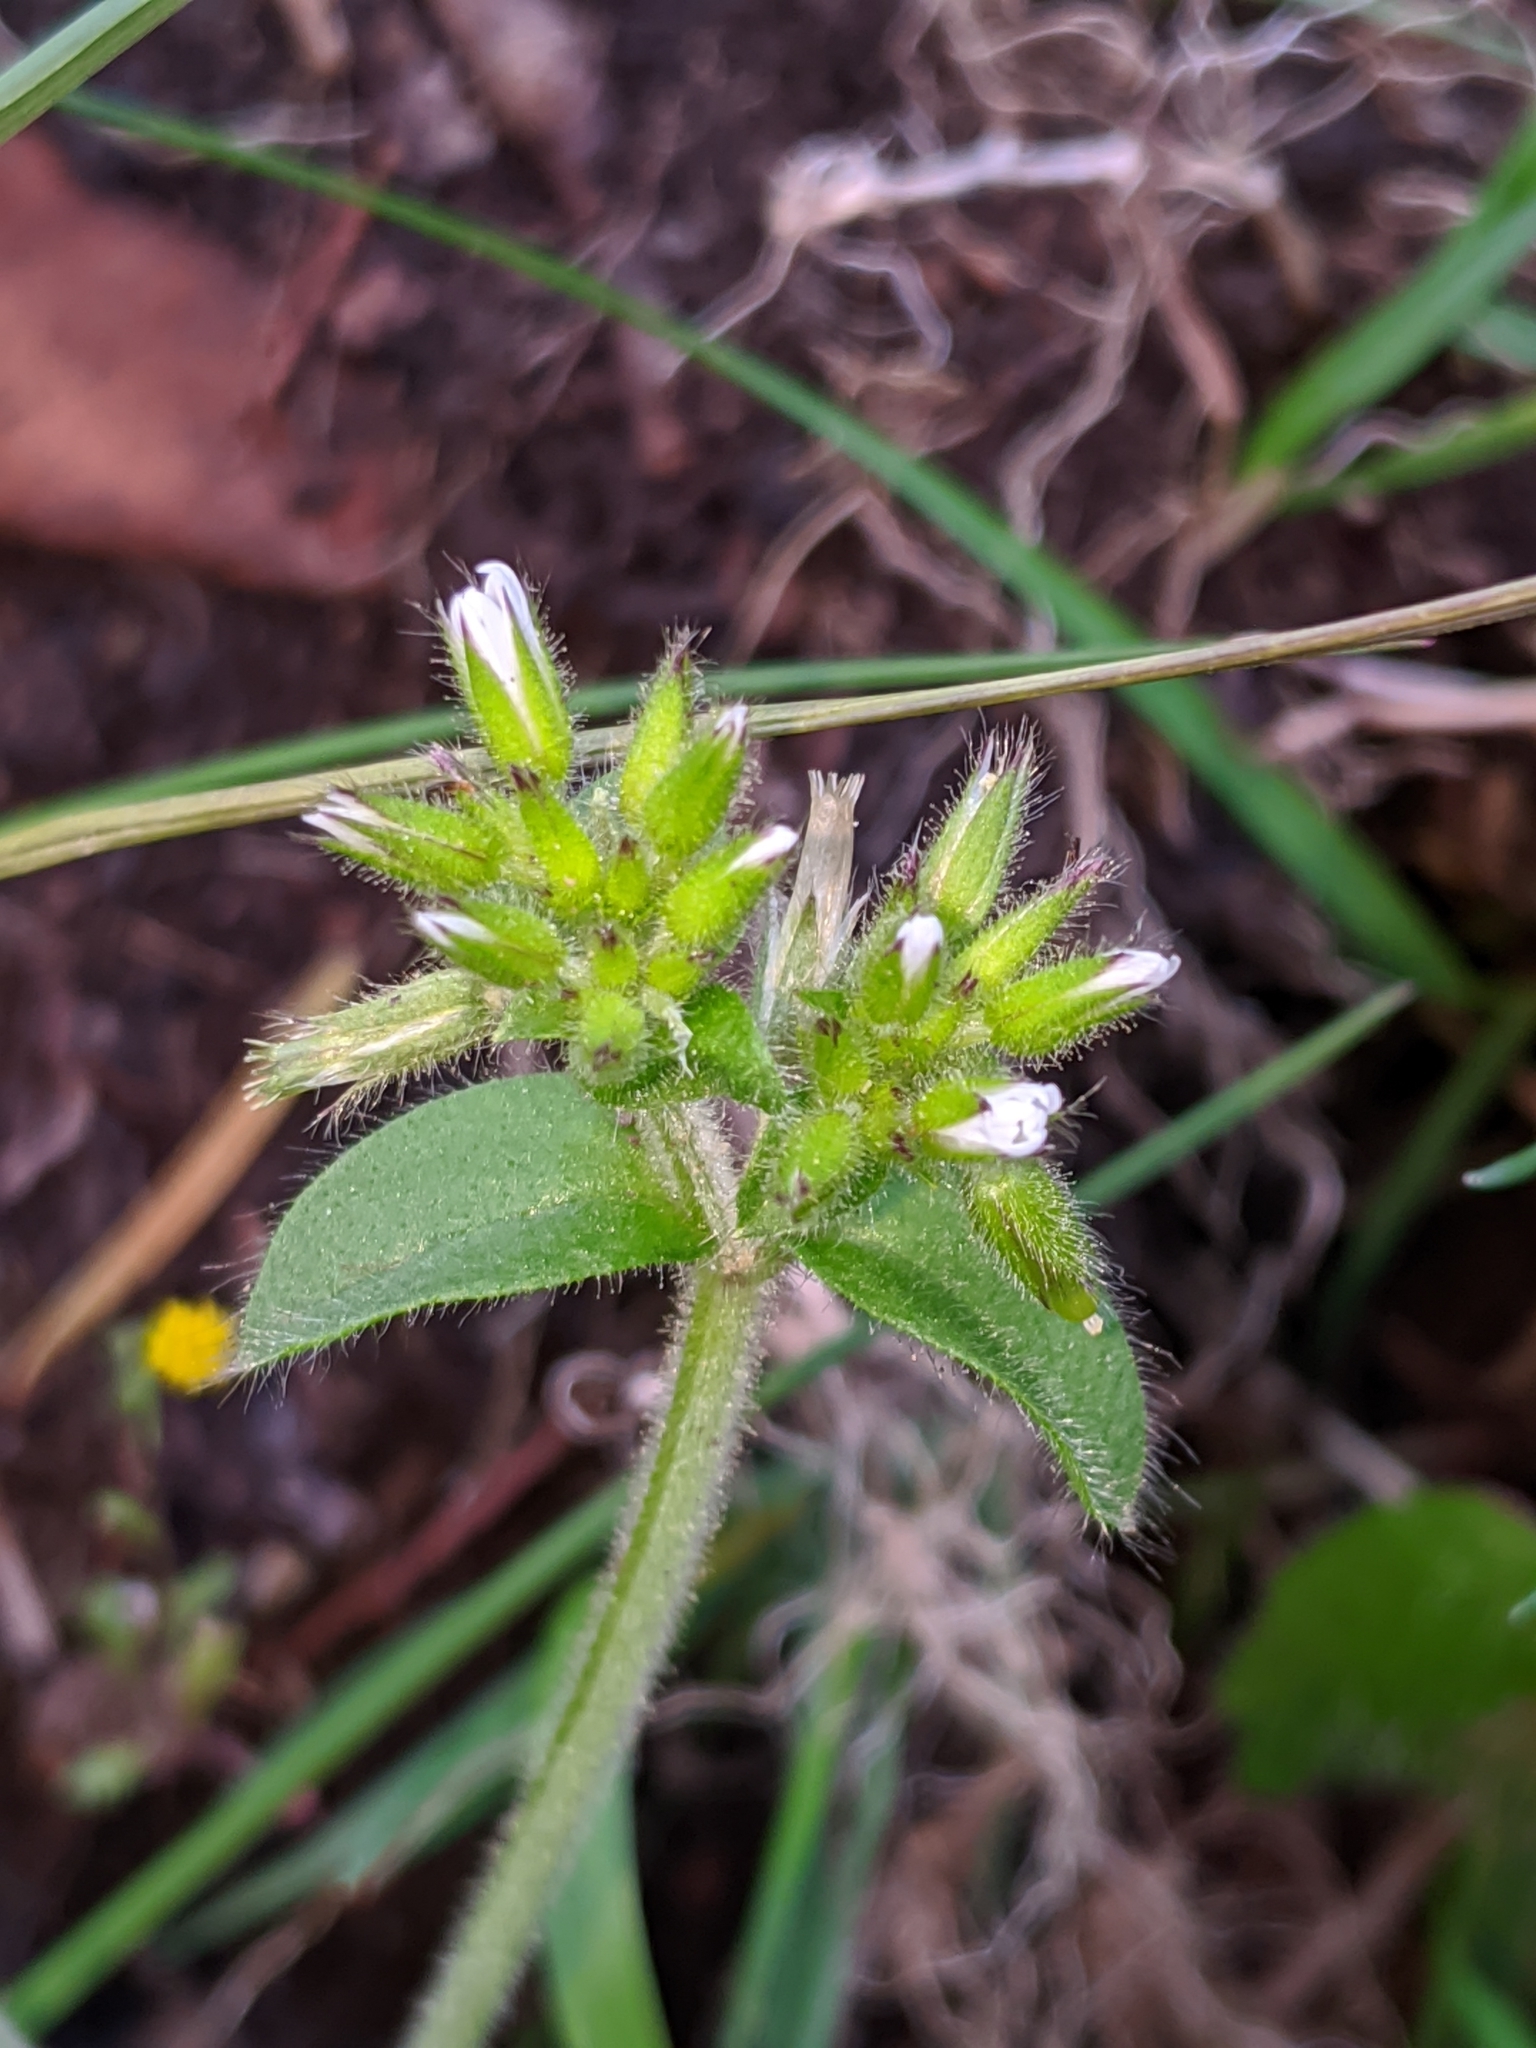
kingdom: Plantae
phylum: Tracheophyta
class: Magnoliopsida
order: Caryophyllales
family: Caryophyllaceae
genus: Cerastium
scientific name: Cerastium glomeratum
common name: Sticky chickweed
